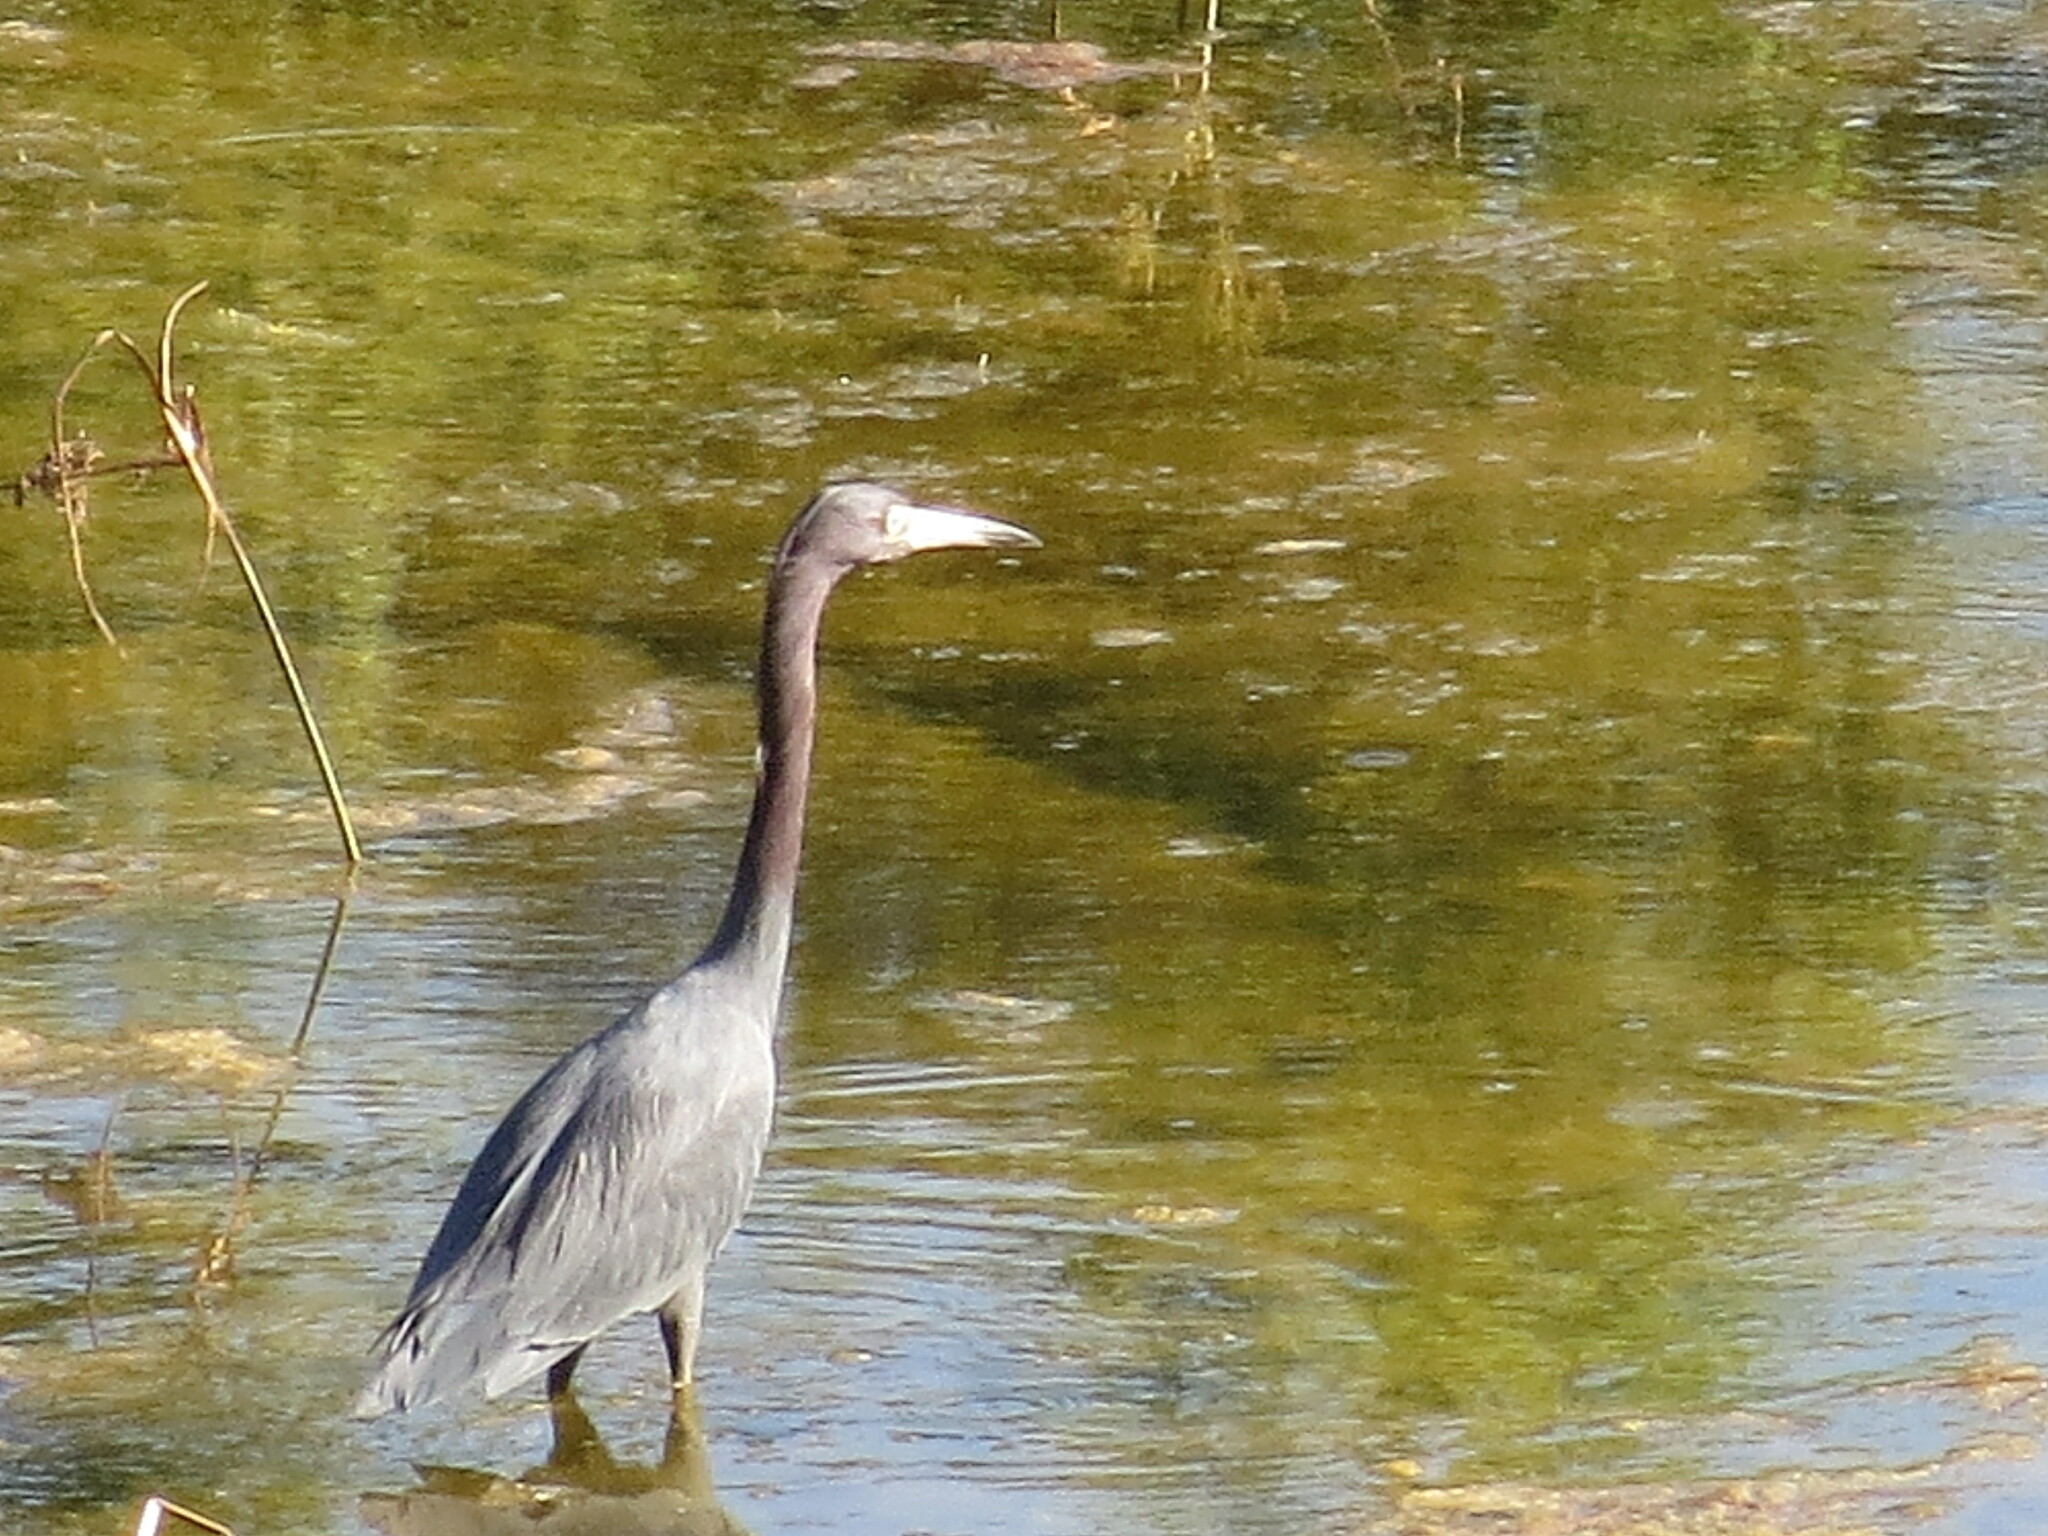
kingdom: Animalia
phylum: Chordata
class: Aves
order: Pelecaniformes
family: Ardeidae
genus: Egretta
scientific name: Egretta caerulea
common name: Little blue heron
